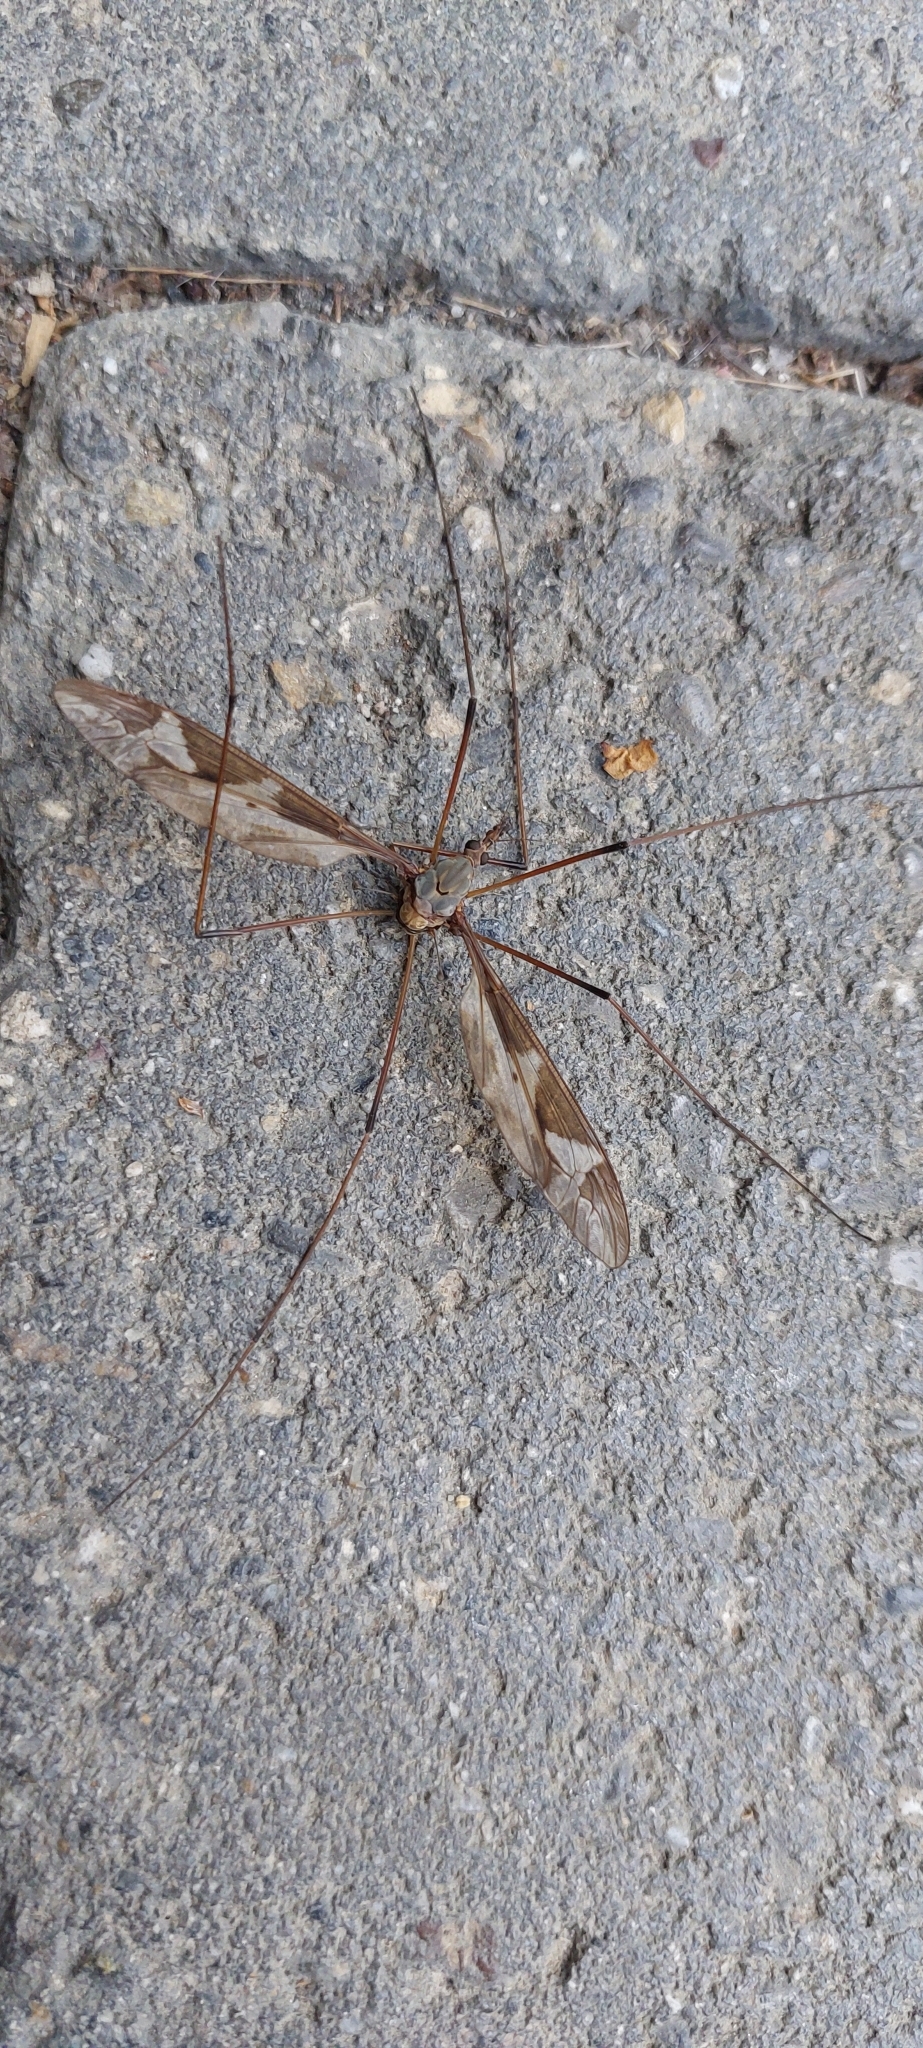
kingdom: Animalia
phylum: Arthropoda
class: Insecta
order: Diptera
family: Tipulidae
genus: Tipula
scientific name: Tipula maxima
